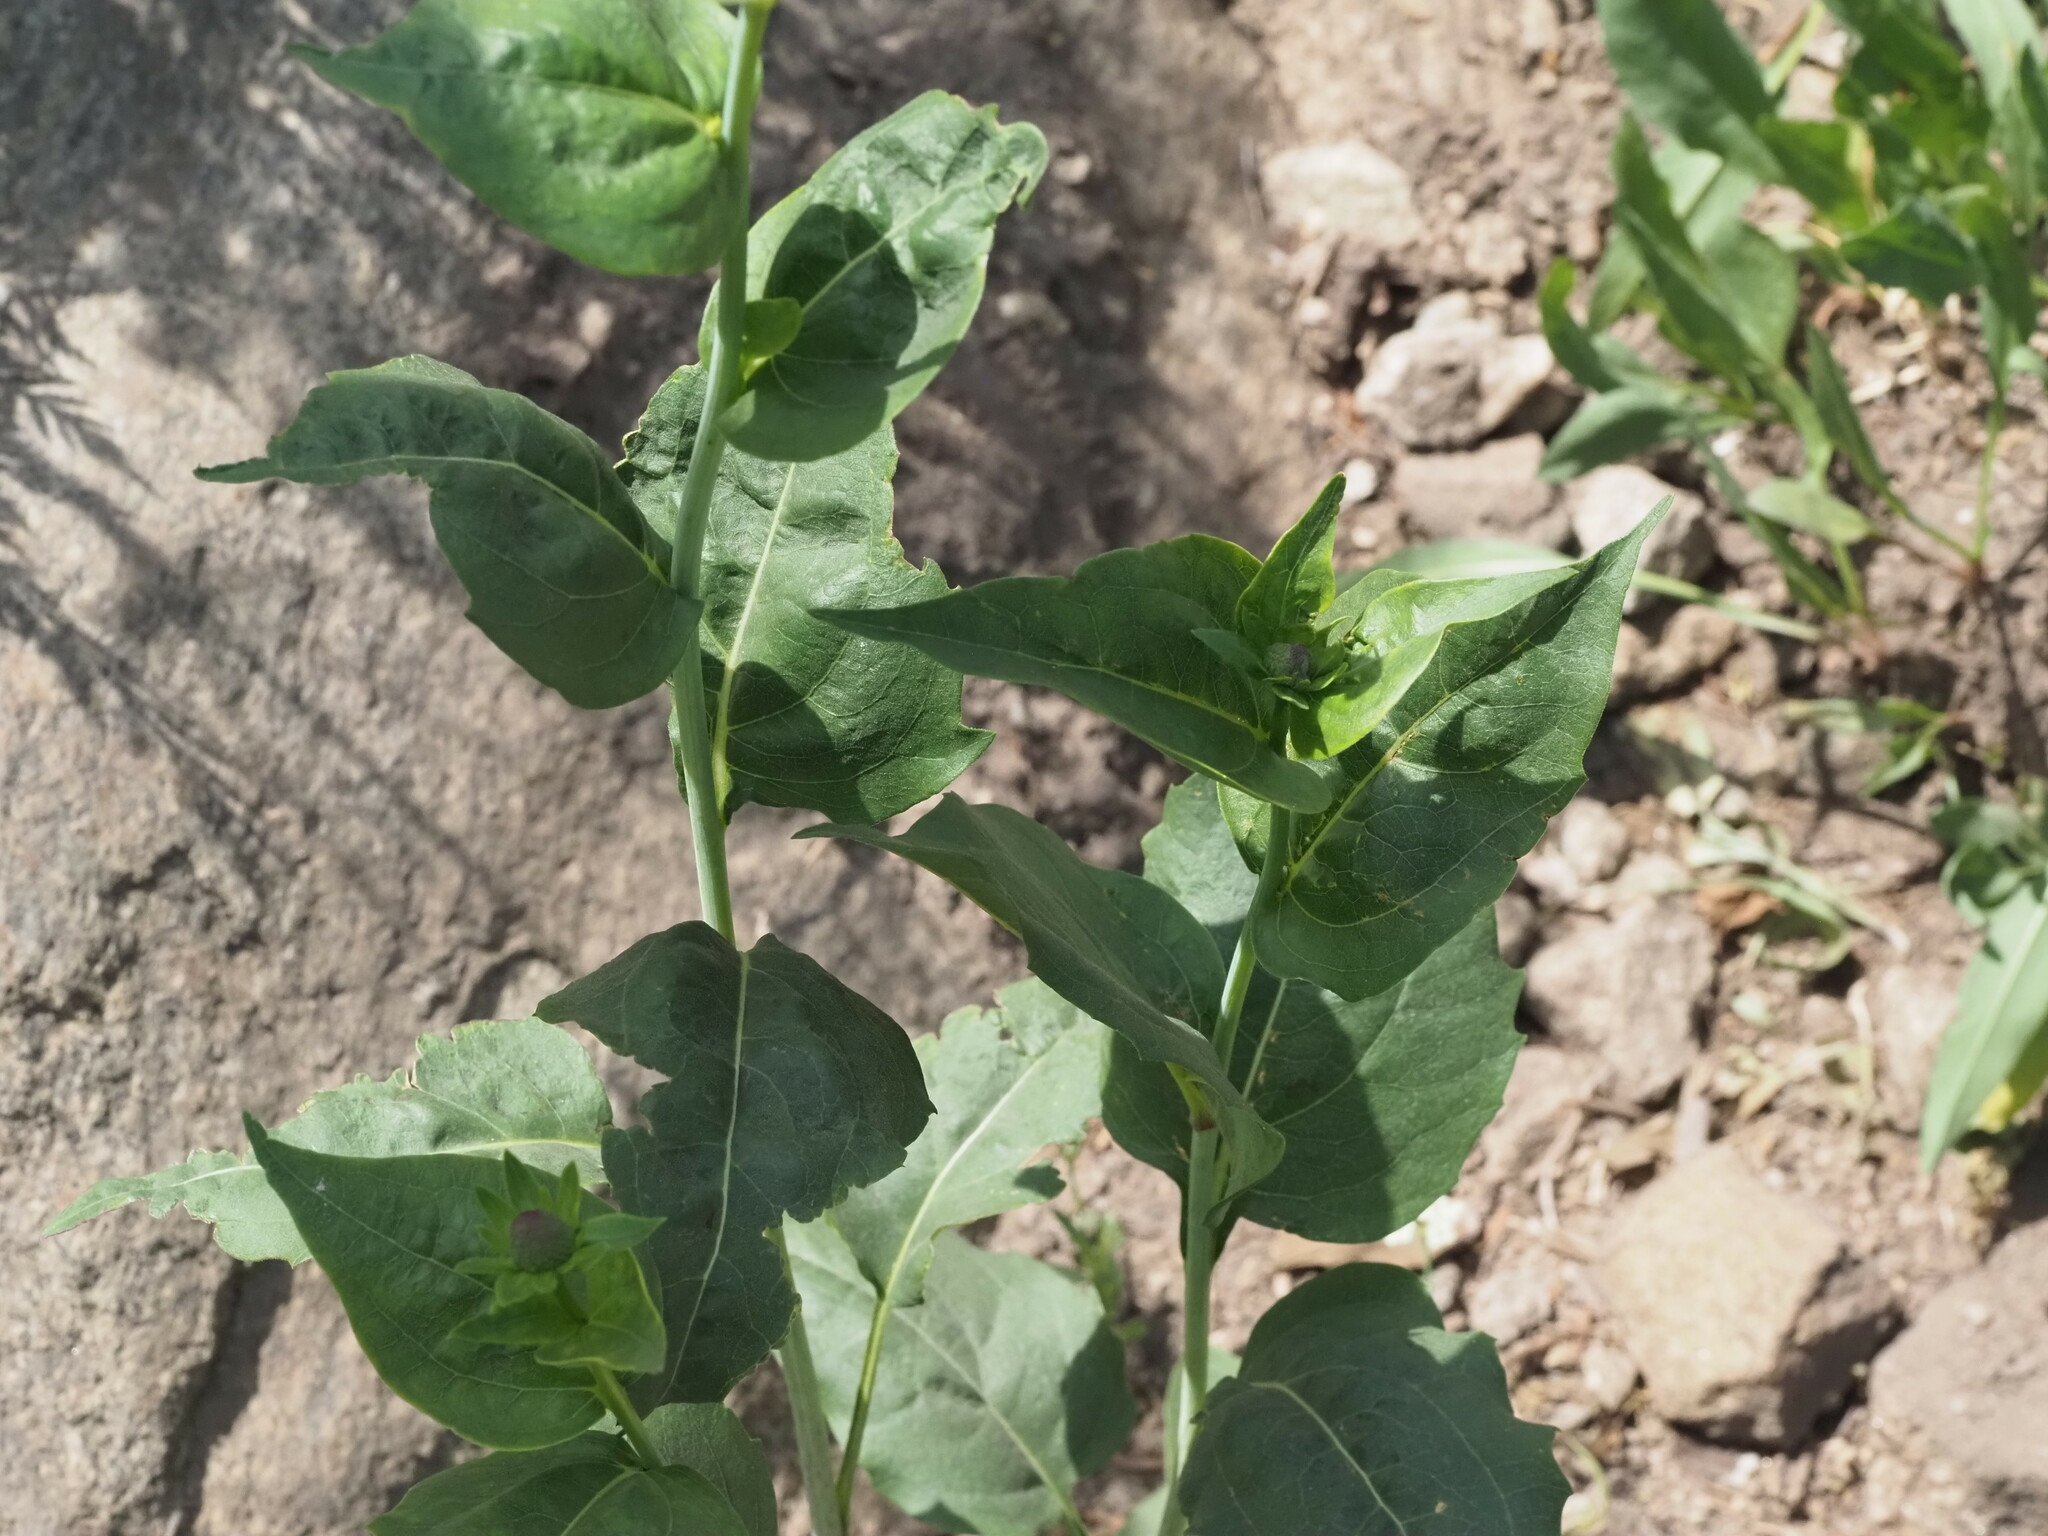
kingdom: Plantae
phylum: Tracheophyta
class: Magnoliopsida
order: Asterales
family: Asteraceae
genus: Rudbeckia
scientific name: Rudbeckia occidentalis
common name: Western coneflower
